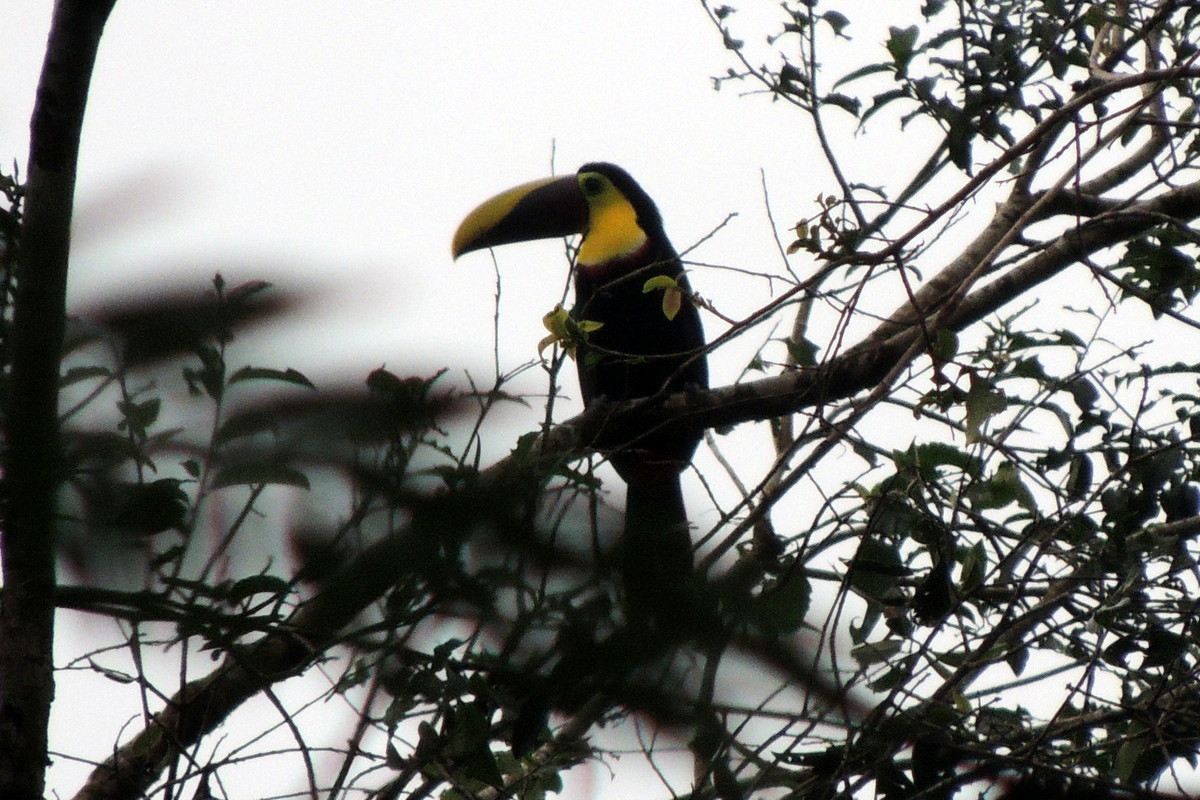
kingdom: Animalia
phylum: Chordata
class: Aves
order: Piciformes
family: Ramphastidae
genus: Ramphastos
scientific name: Ramphastos ambiguus
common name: Yellow-throated toucan
